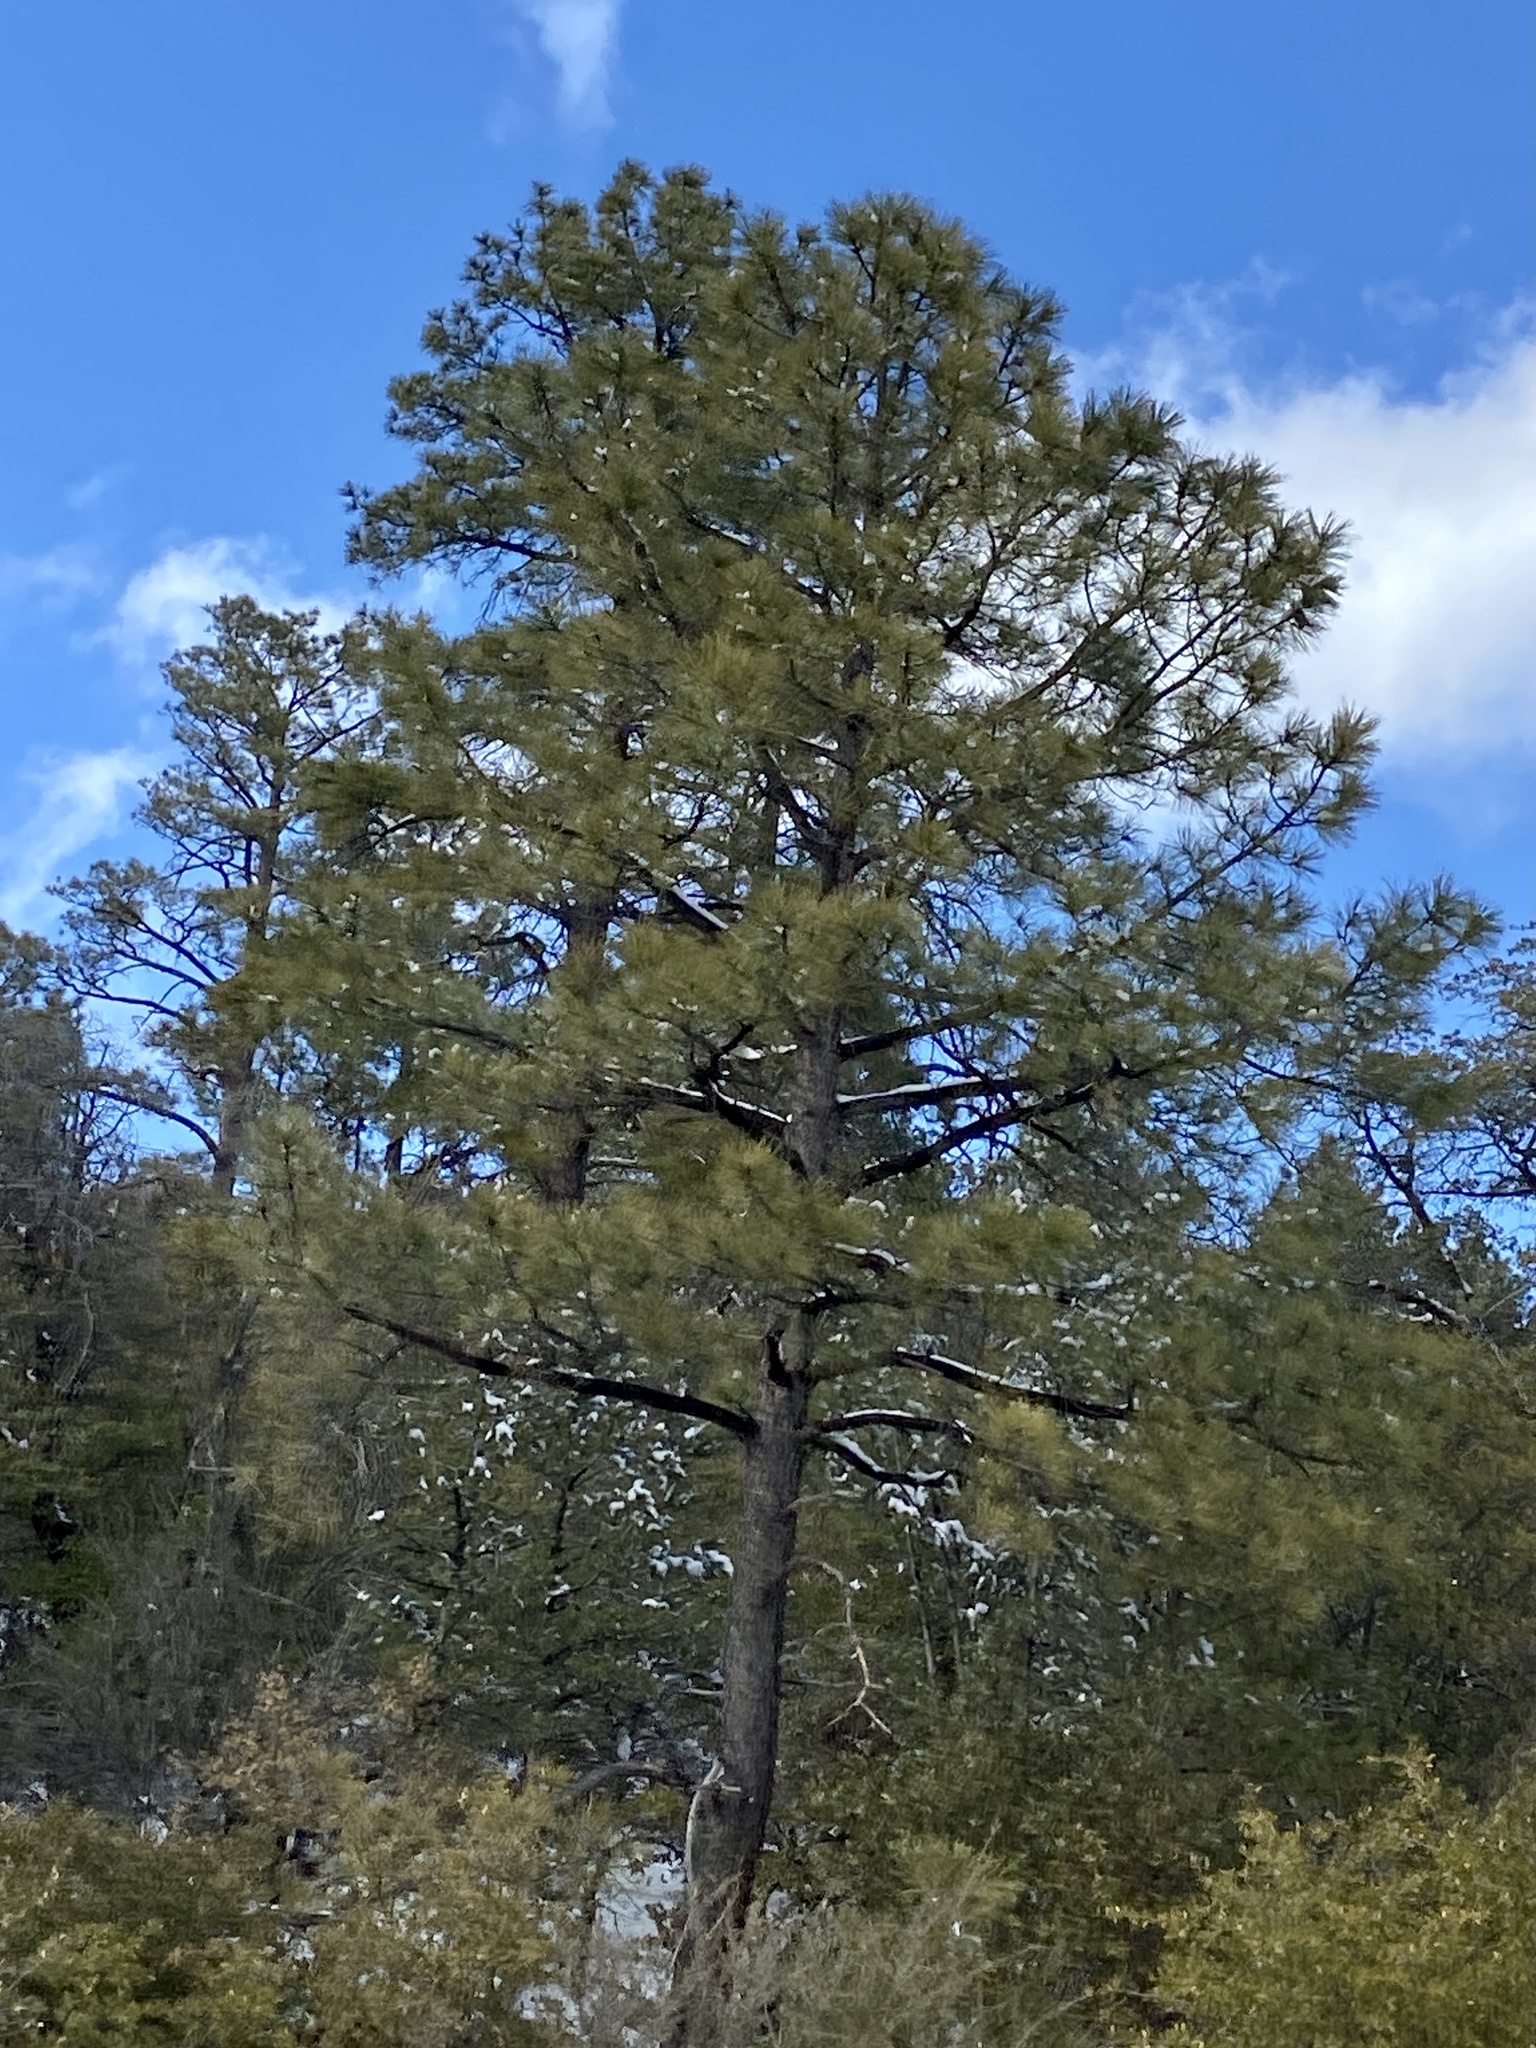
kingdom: Plantae
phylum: Tracheophyta
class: Pinopsida
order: Pinales
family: Pinaceae
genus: Pinus
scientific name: Pinus ponderosa
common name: Western yellow-pine
